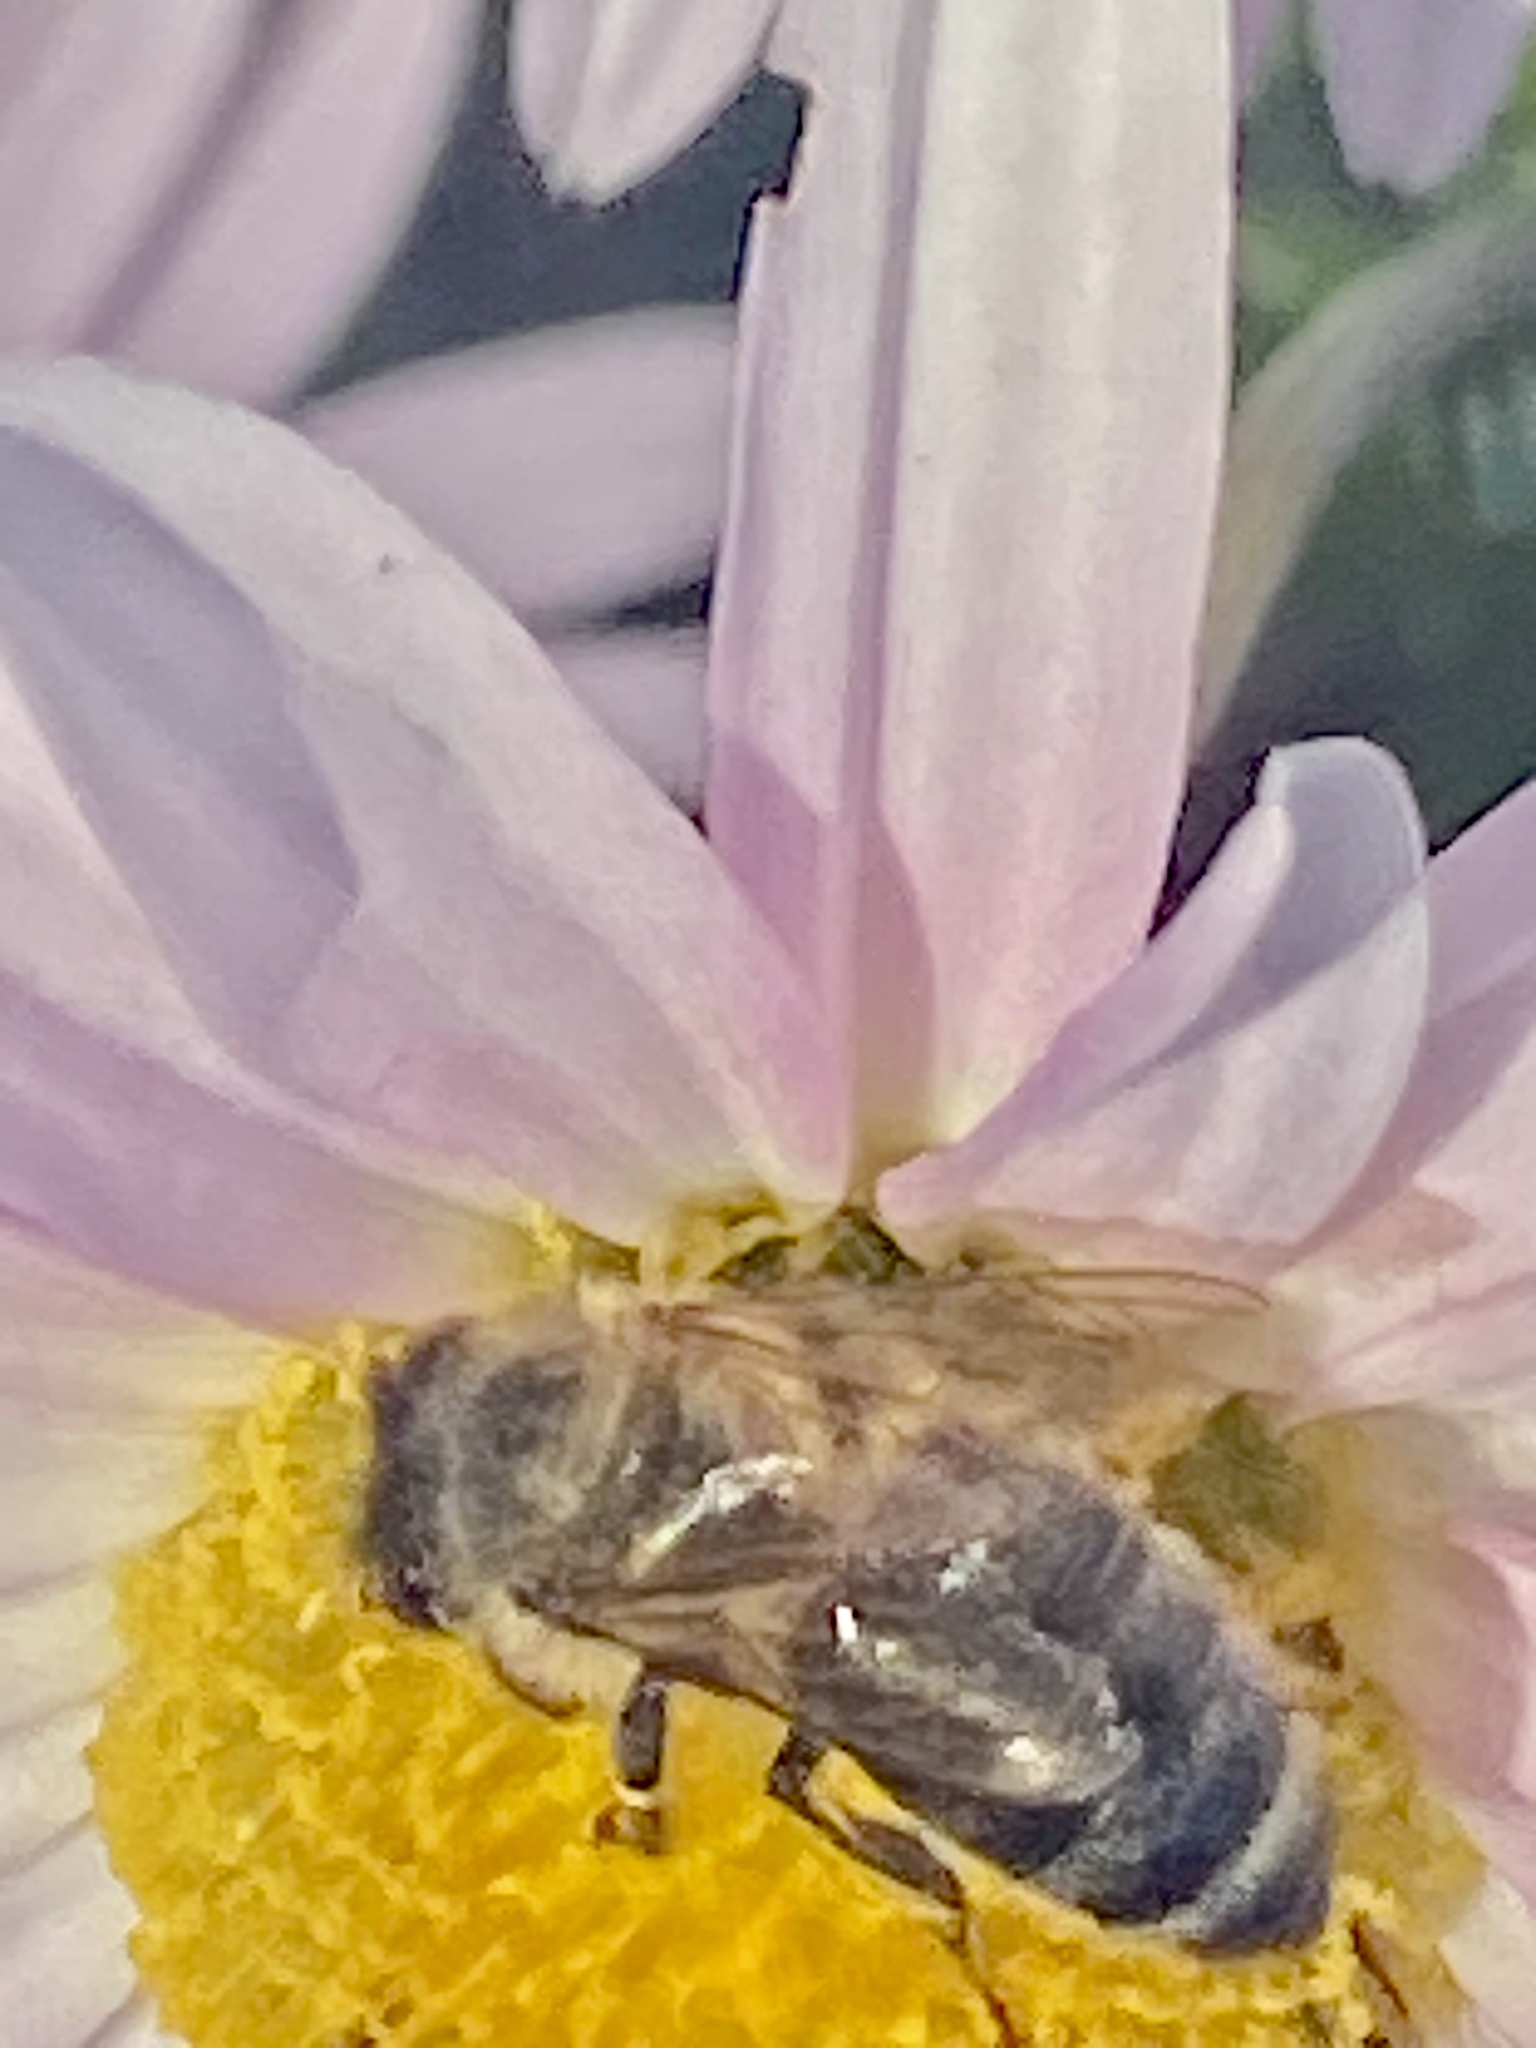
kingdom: Animalia
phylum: Arthropoda
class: Insecta
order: Hymenoptera
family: Apidae
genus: Apis
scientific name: Apis mellifera
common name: Honey bee
